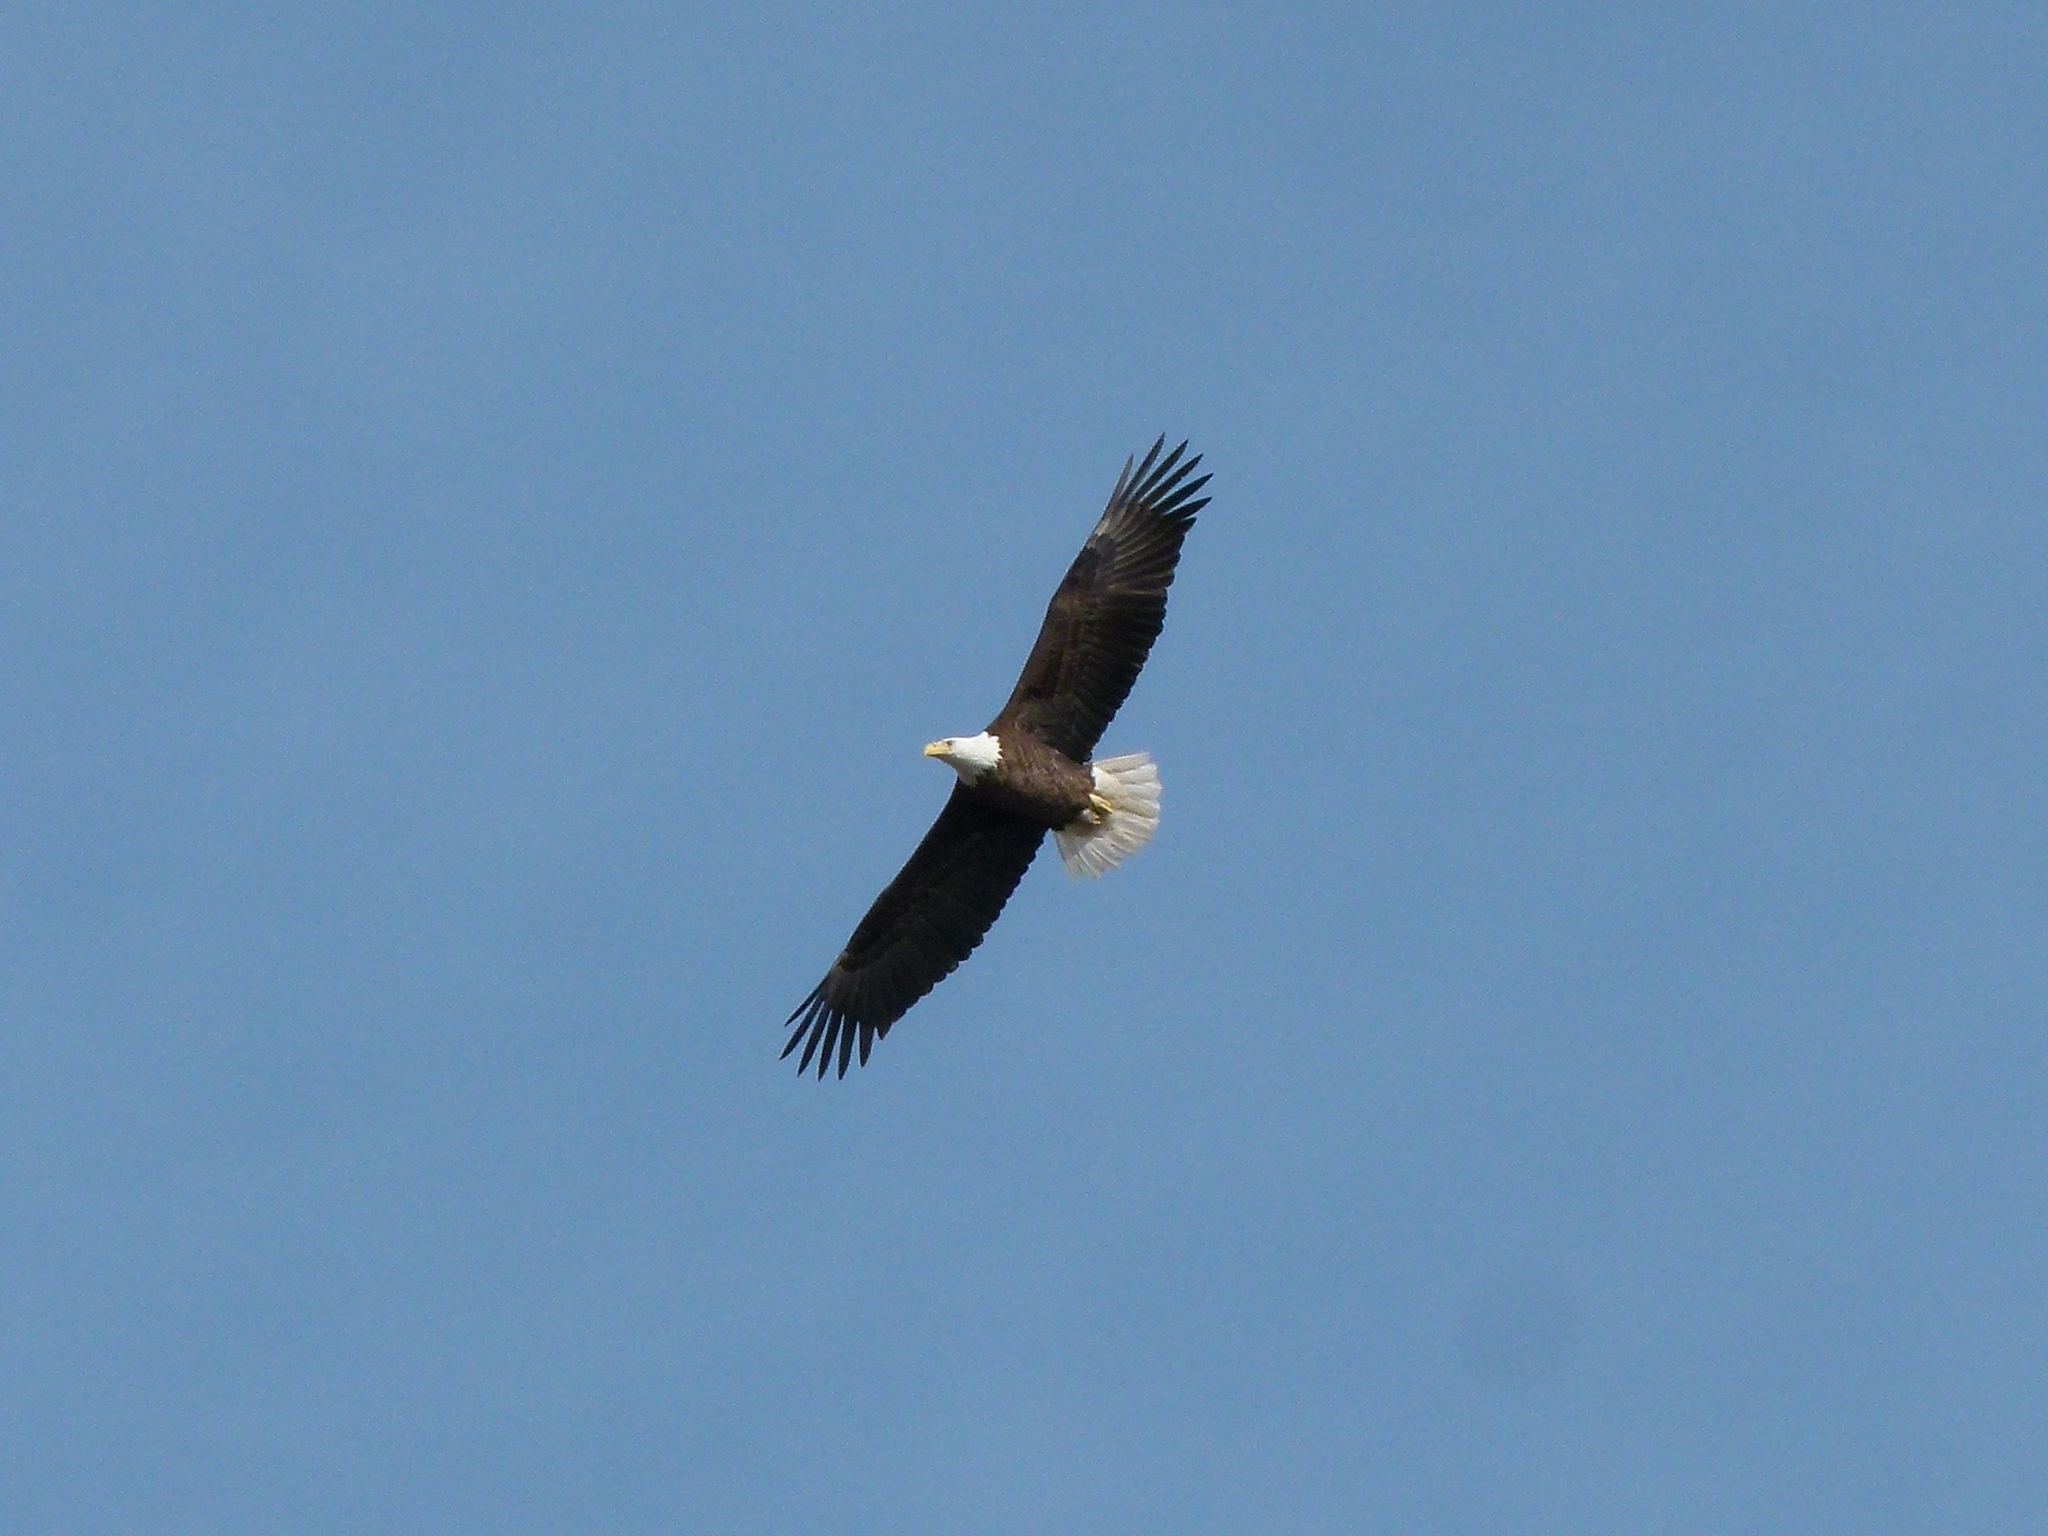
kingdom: Animalia
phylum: Chordata
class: Aves
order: Accipitriformes
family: Accipitridae
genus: Haliaeetus
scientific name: Haliaeetus leucocephalus
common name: Bald eagle
